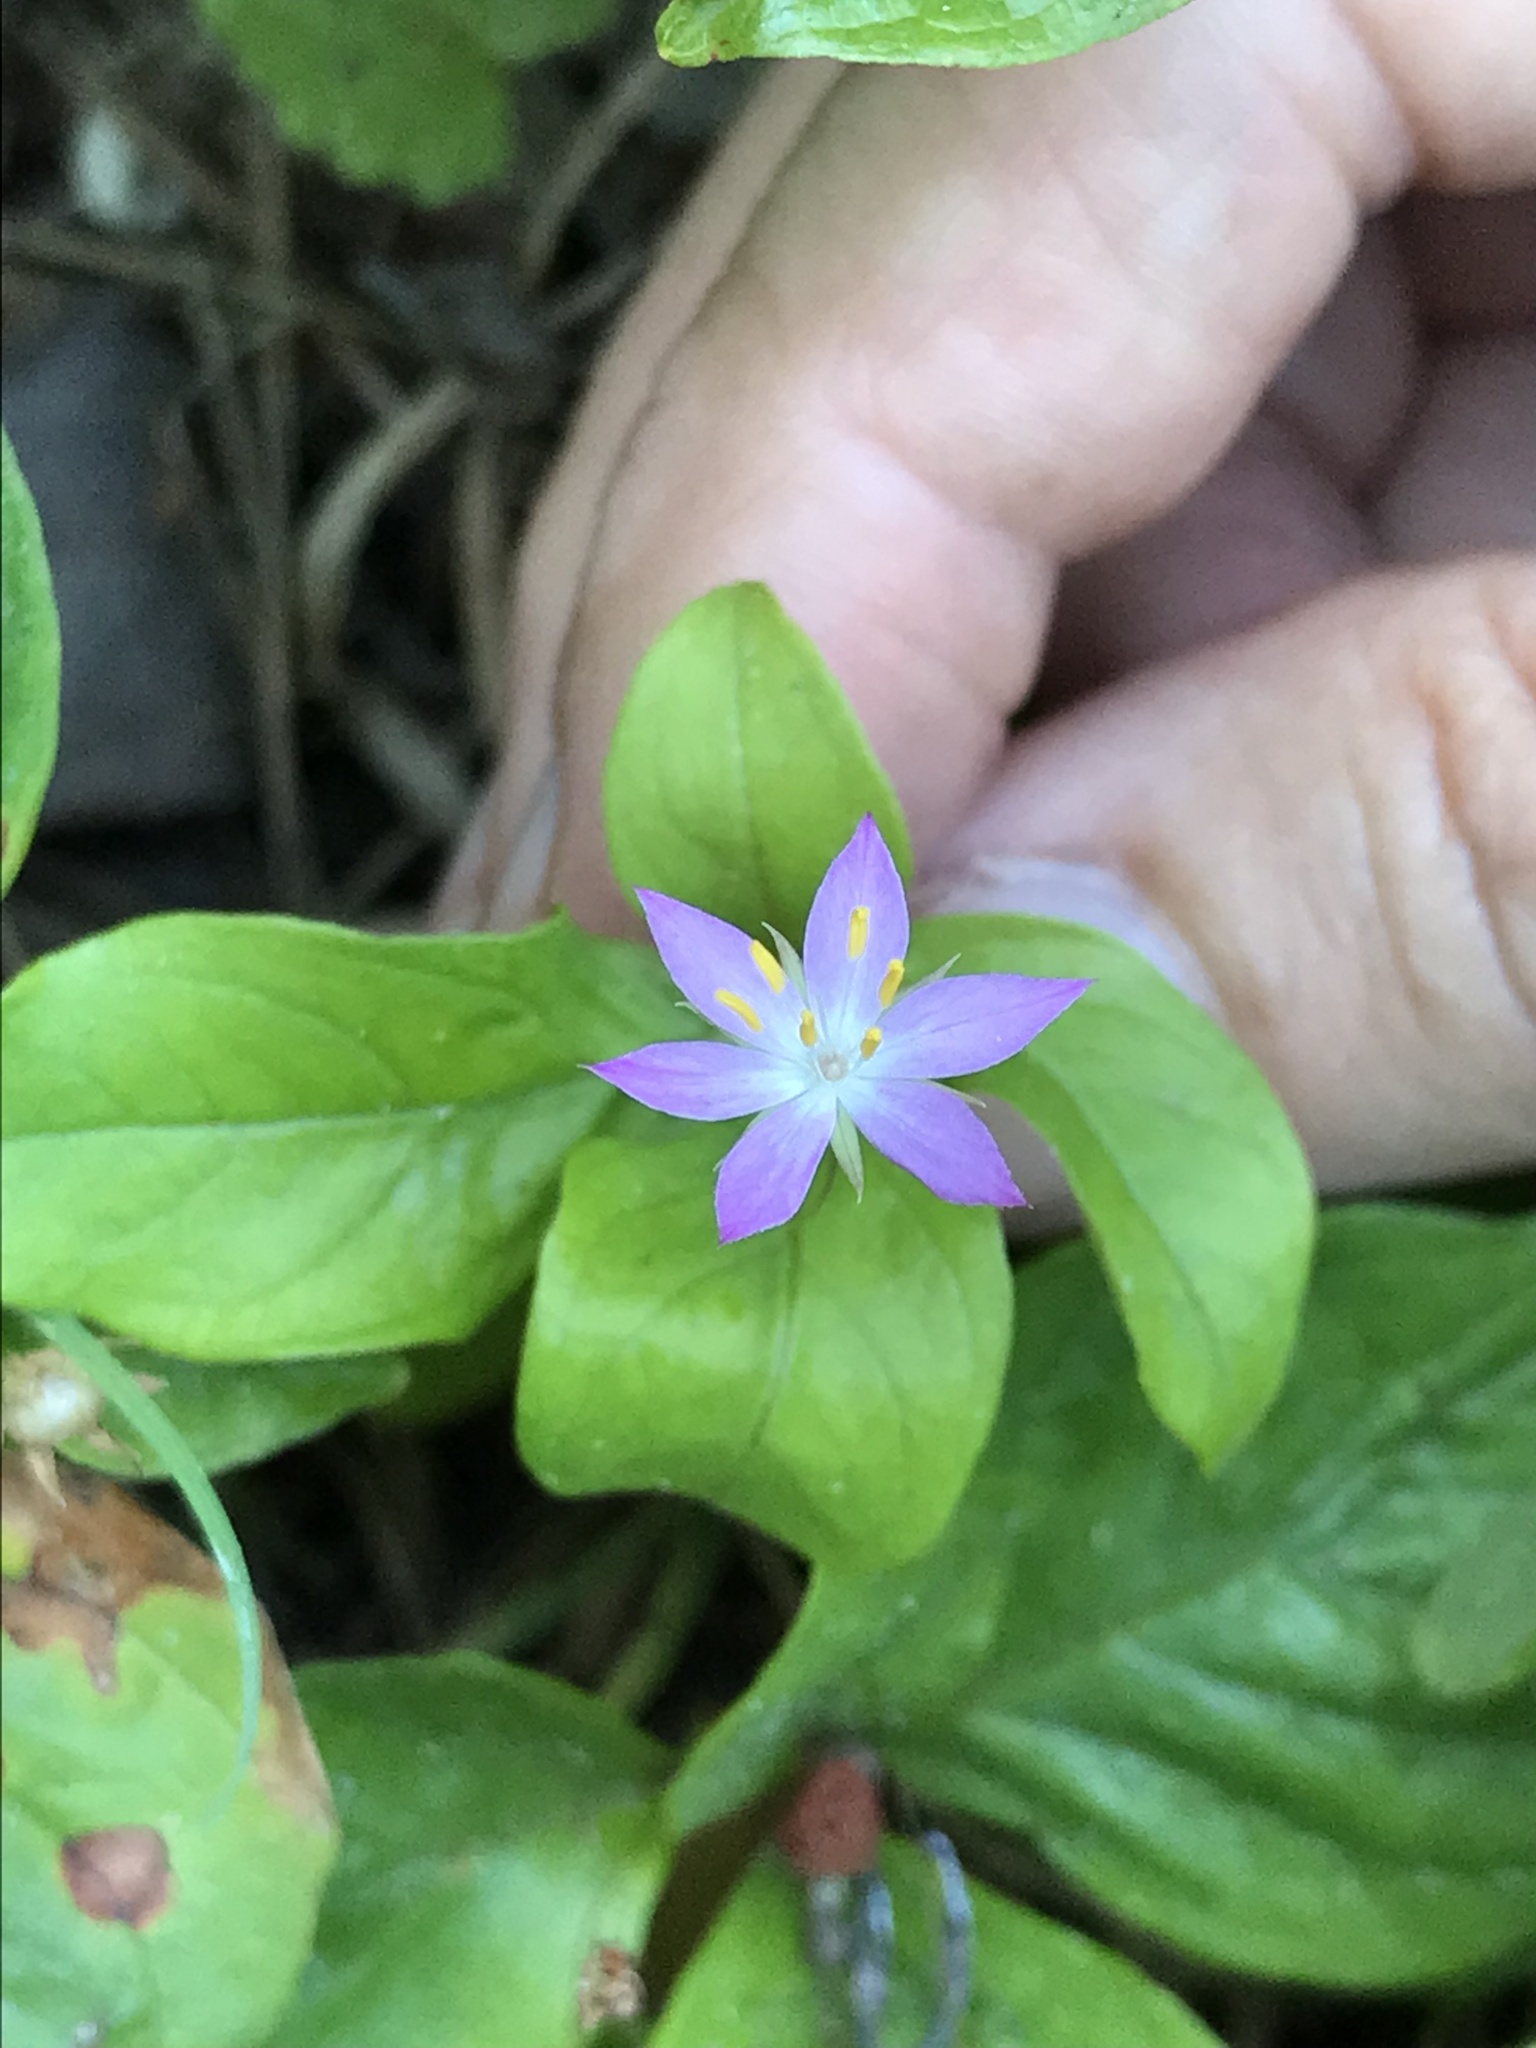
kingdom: Plantae
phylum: Tracheophyta
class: Magnoliopsida
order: Ericales
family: Primulaceae
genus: Lysimachia
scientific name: Lysimachia latifolia
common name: Pacific starflower
